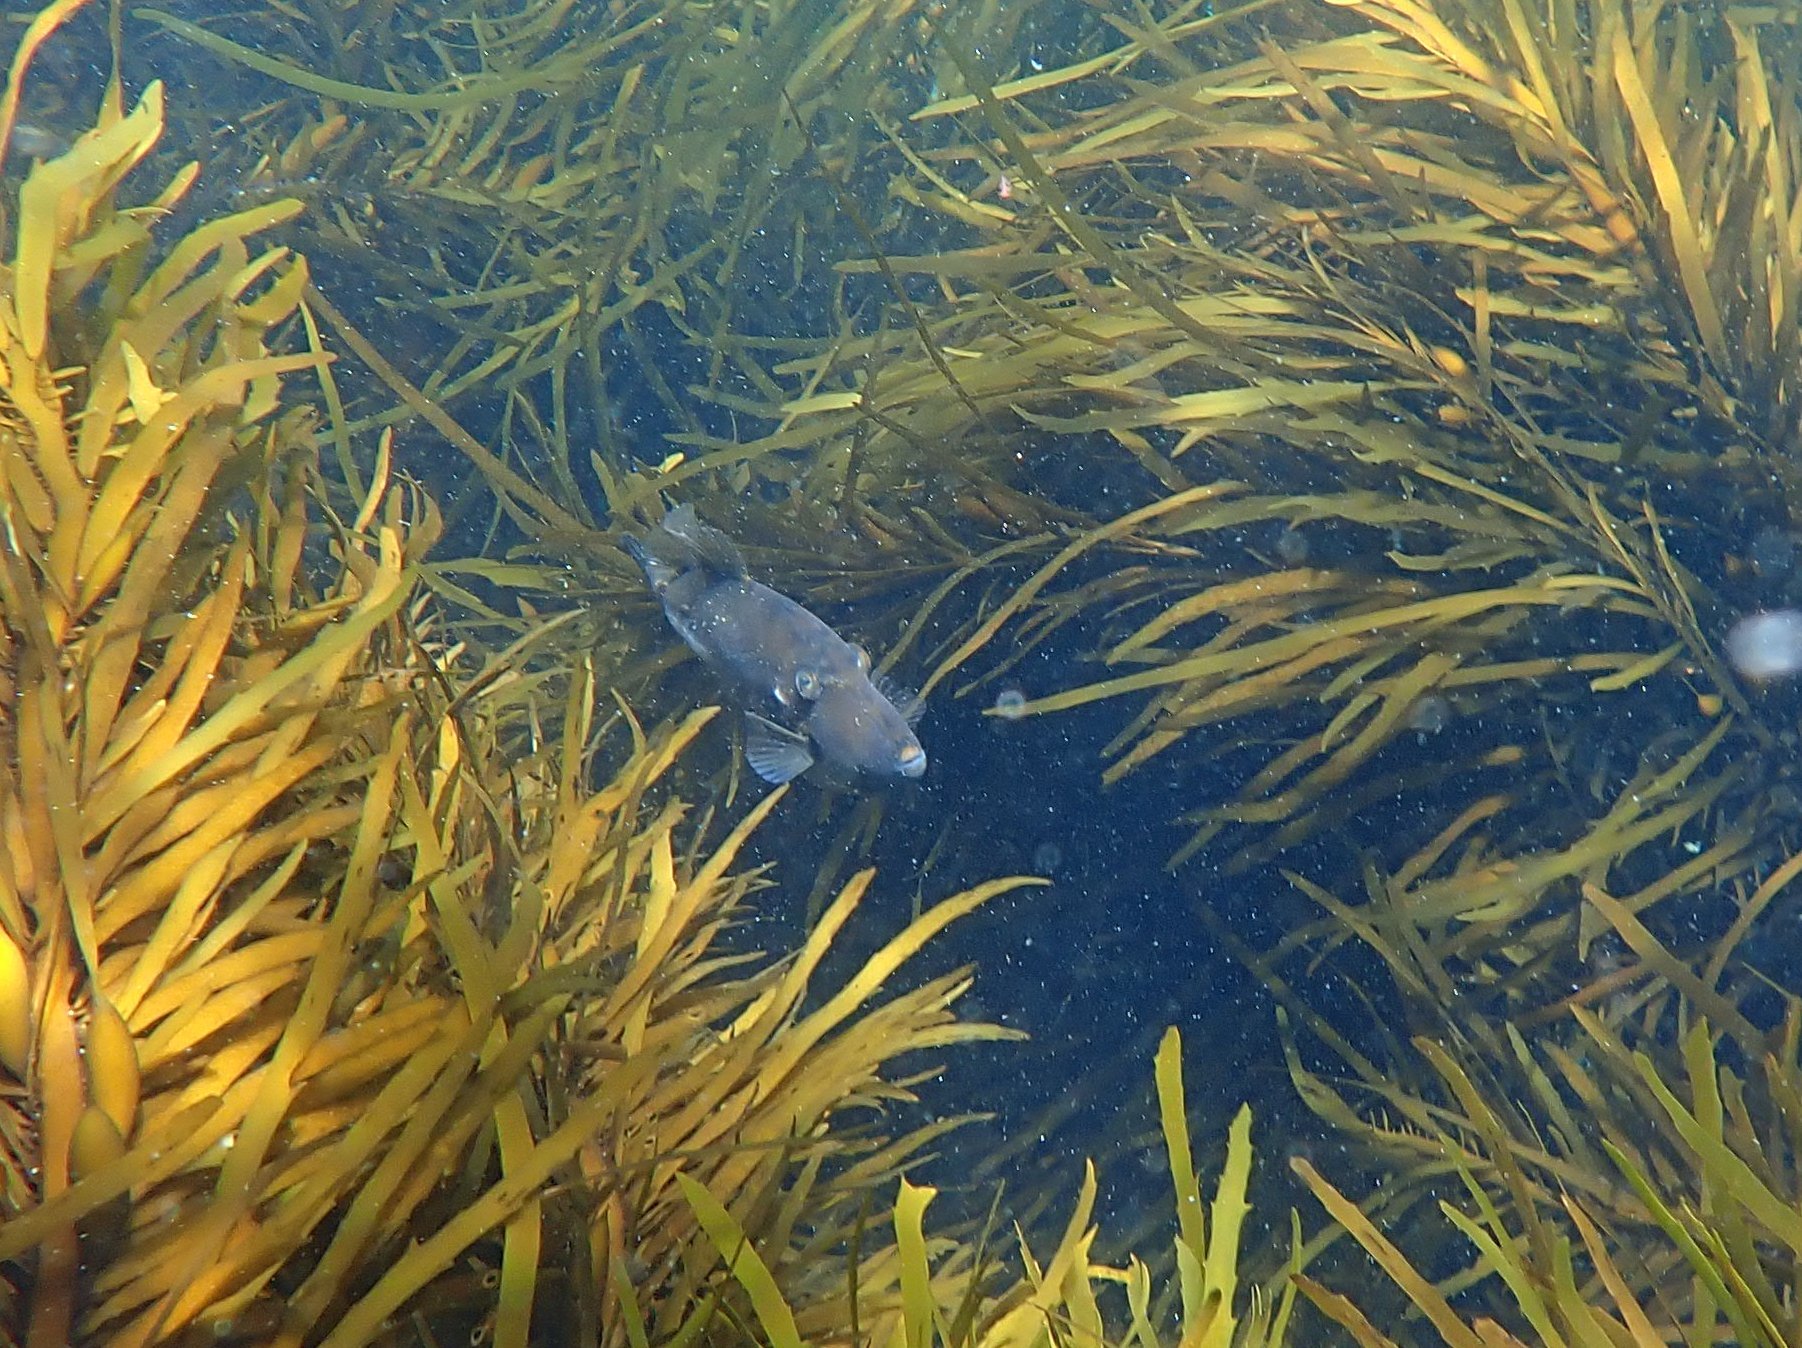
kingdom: Animalia
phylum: Chordata
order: Tetraodontiformes
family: Monacanthidae
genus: Acanthaluteres
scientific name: Acanthaluteres vittiger
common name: Brown leatherjacket
